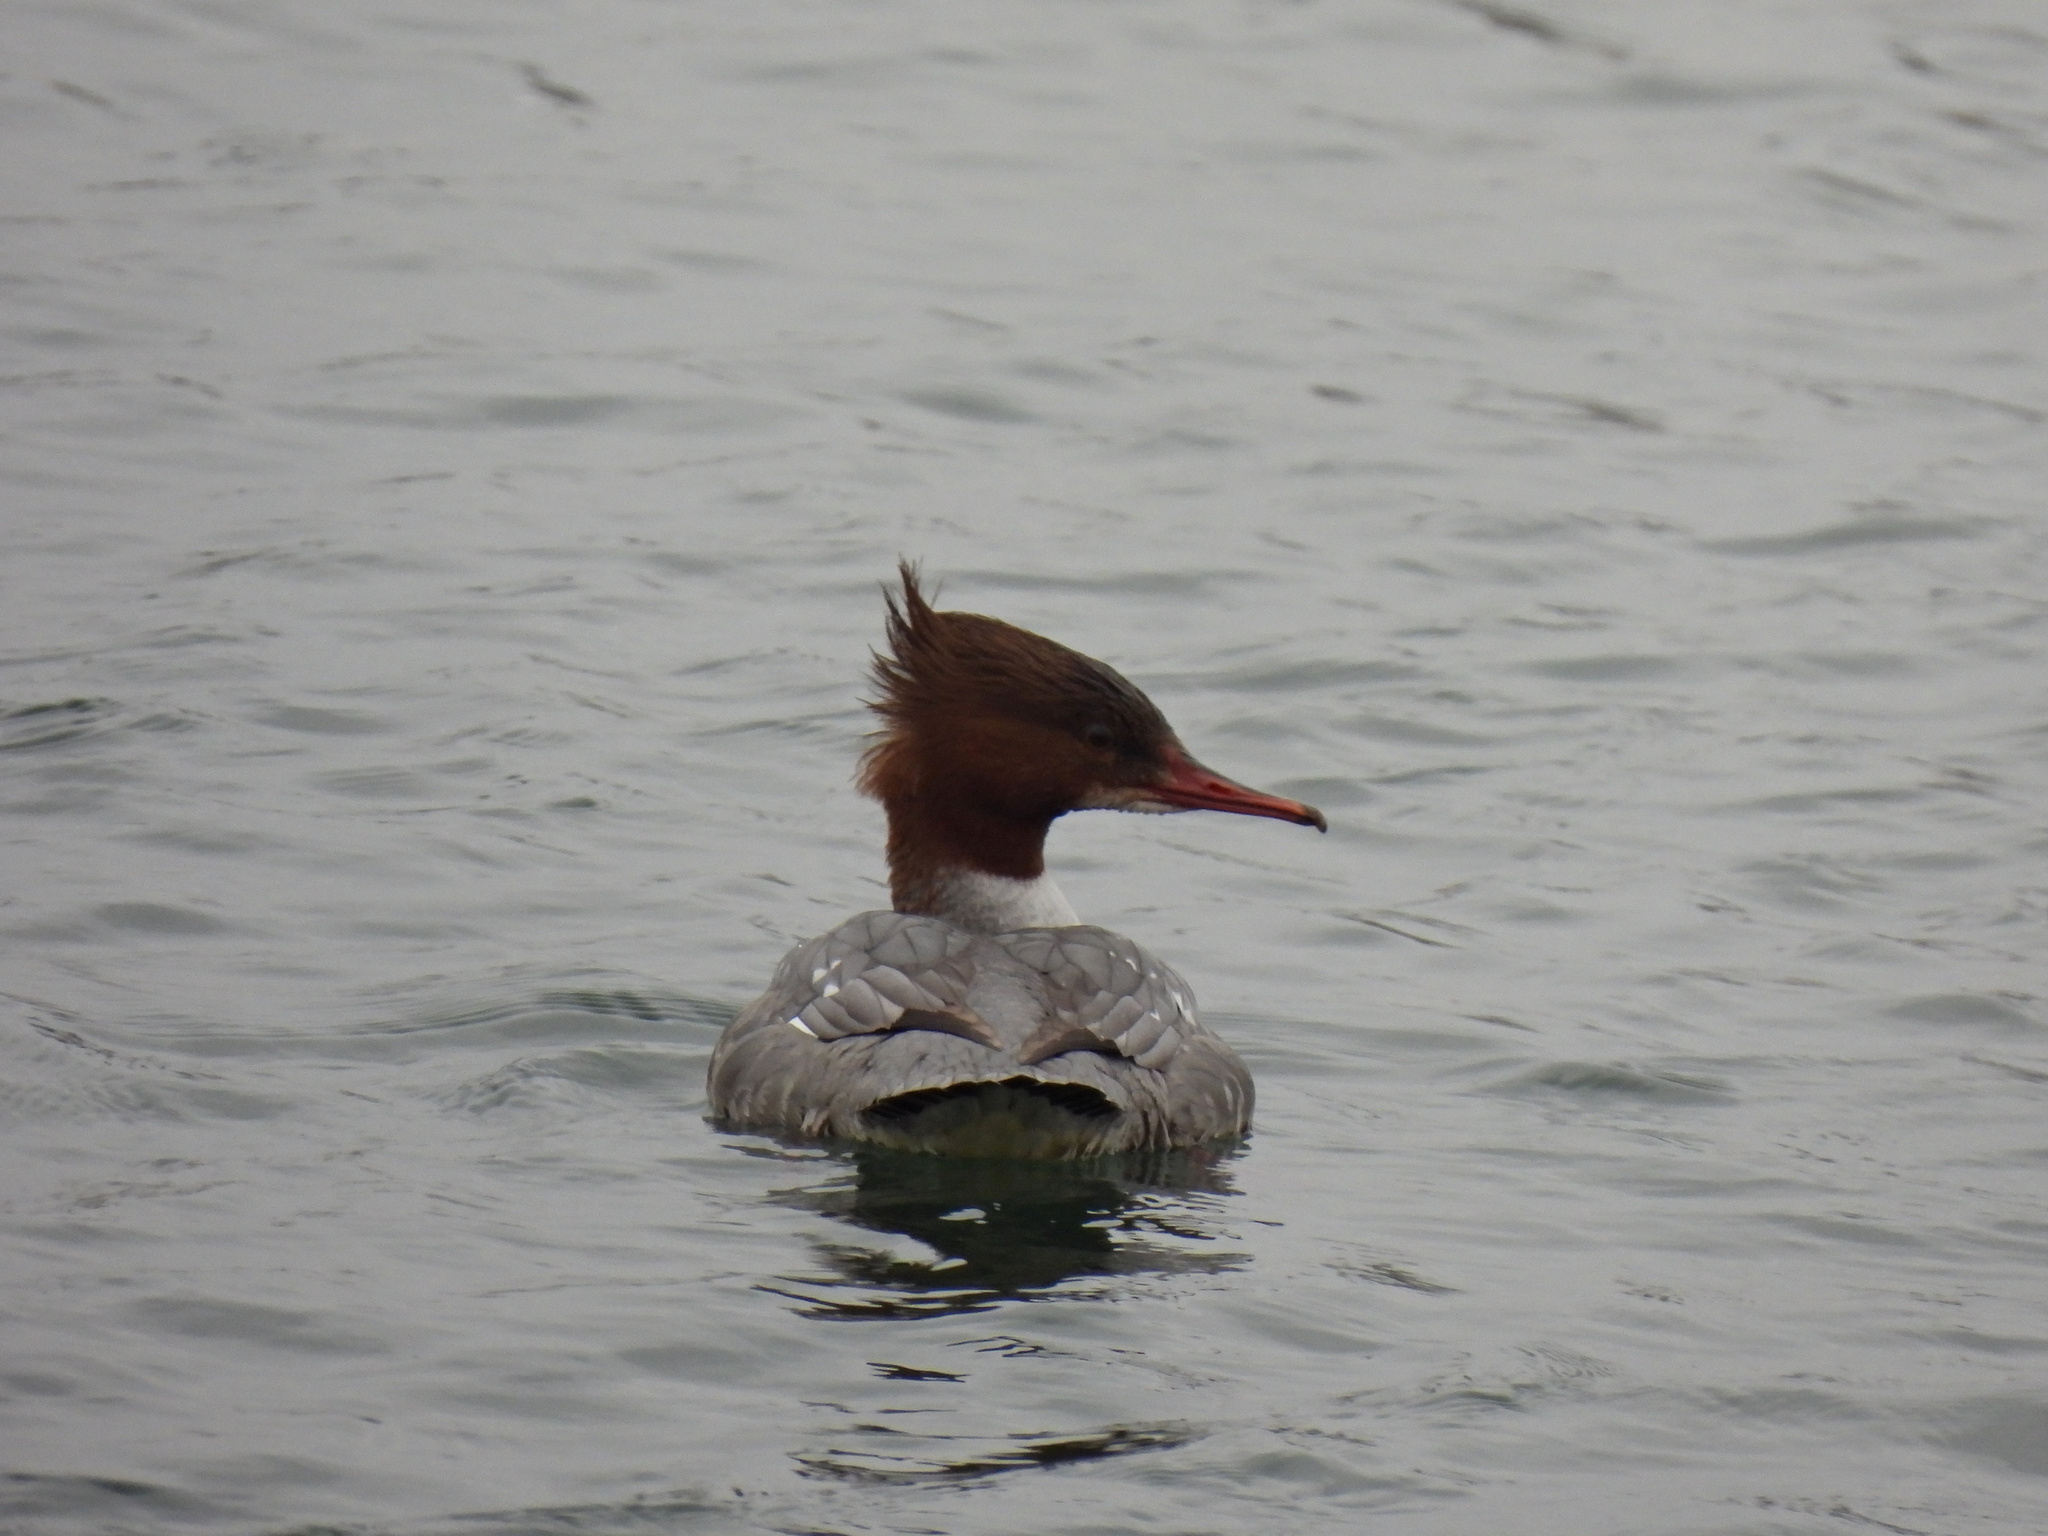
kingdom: Animalia
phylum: Chordata
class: Aves
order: Anseriformes
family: Anatidae
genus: Mergus
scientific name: Mergus merganser
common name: Common merganser
